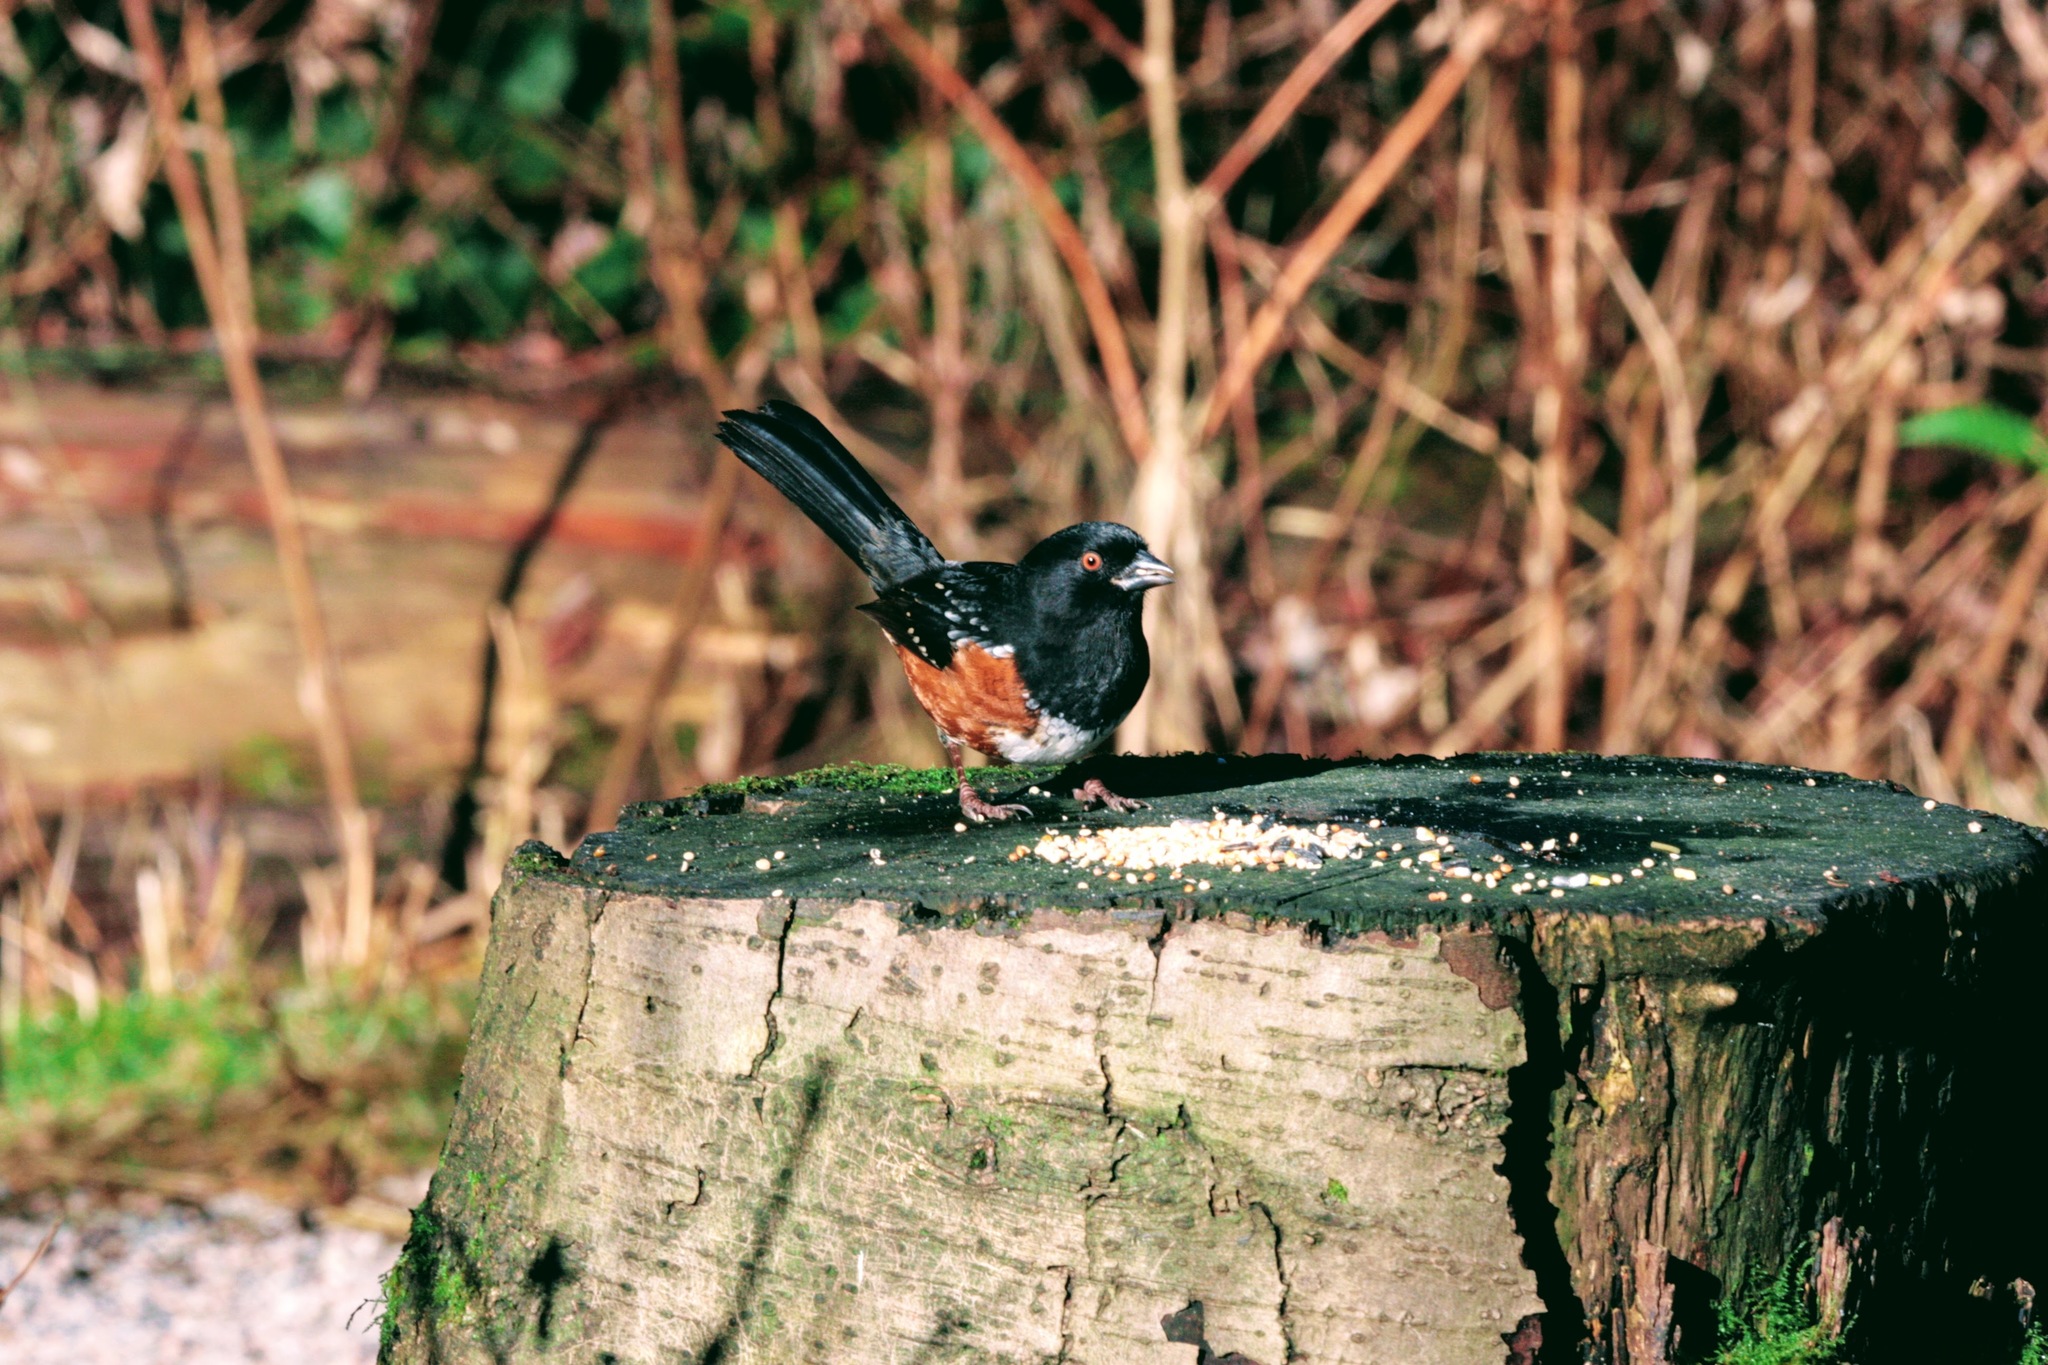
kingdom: Animalia
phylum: Chordata
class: Aves
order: Passeriformes
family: Passerellidae
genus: Pipilo
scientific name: Pipilo maculatus
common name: Spotted towhee
